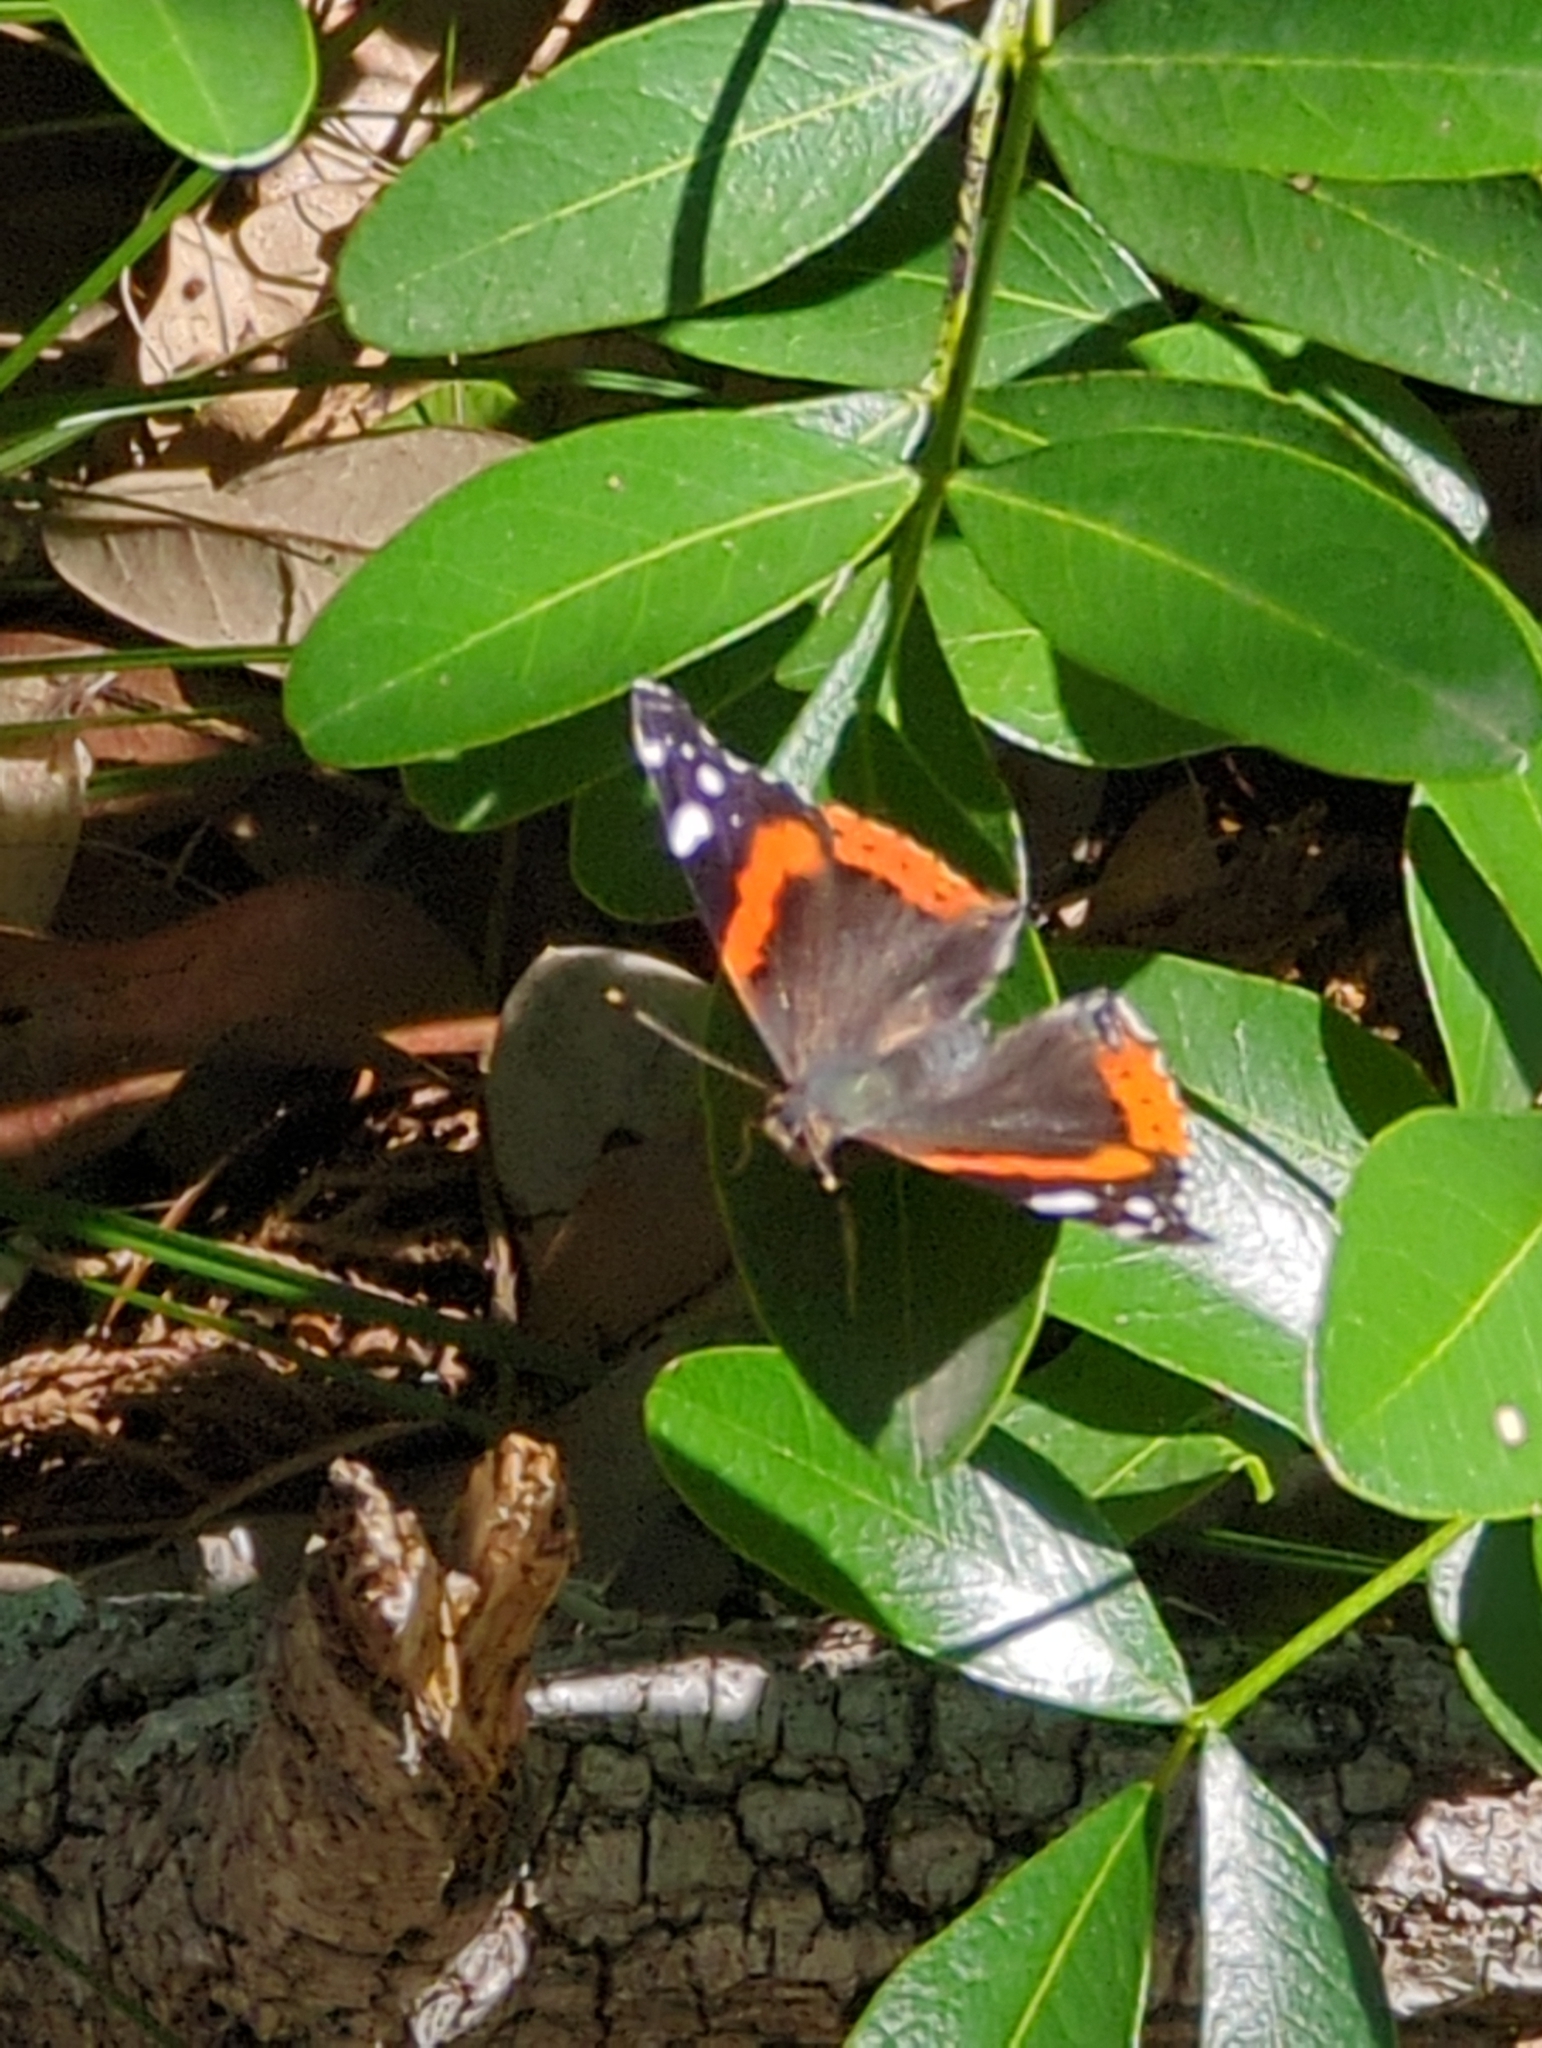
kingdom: Animalia
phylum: Arthropoda
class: Insecta
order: Lepidoptera
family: Nymphalidae
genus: Vanessa
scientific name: Vanessa atalanta
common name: Red admiral
